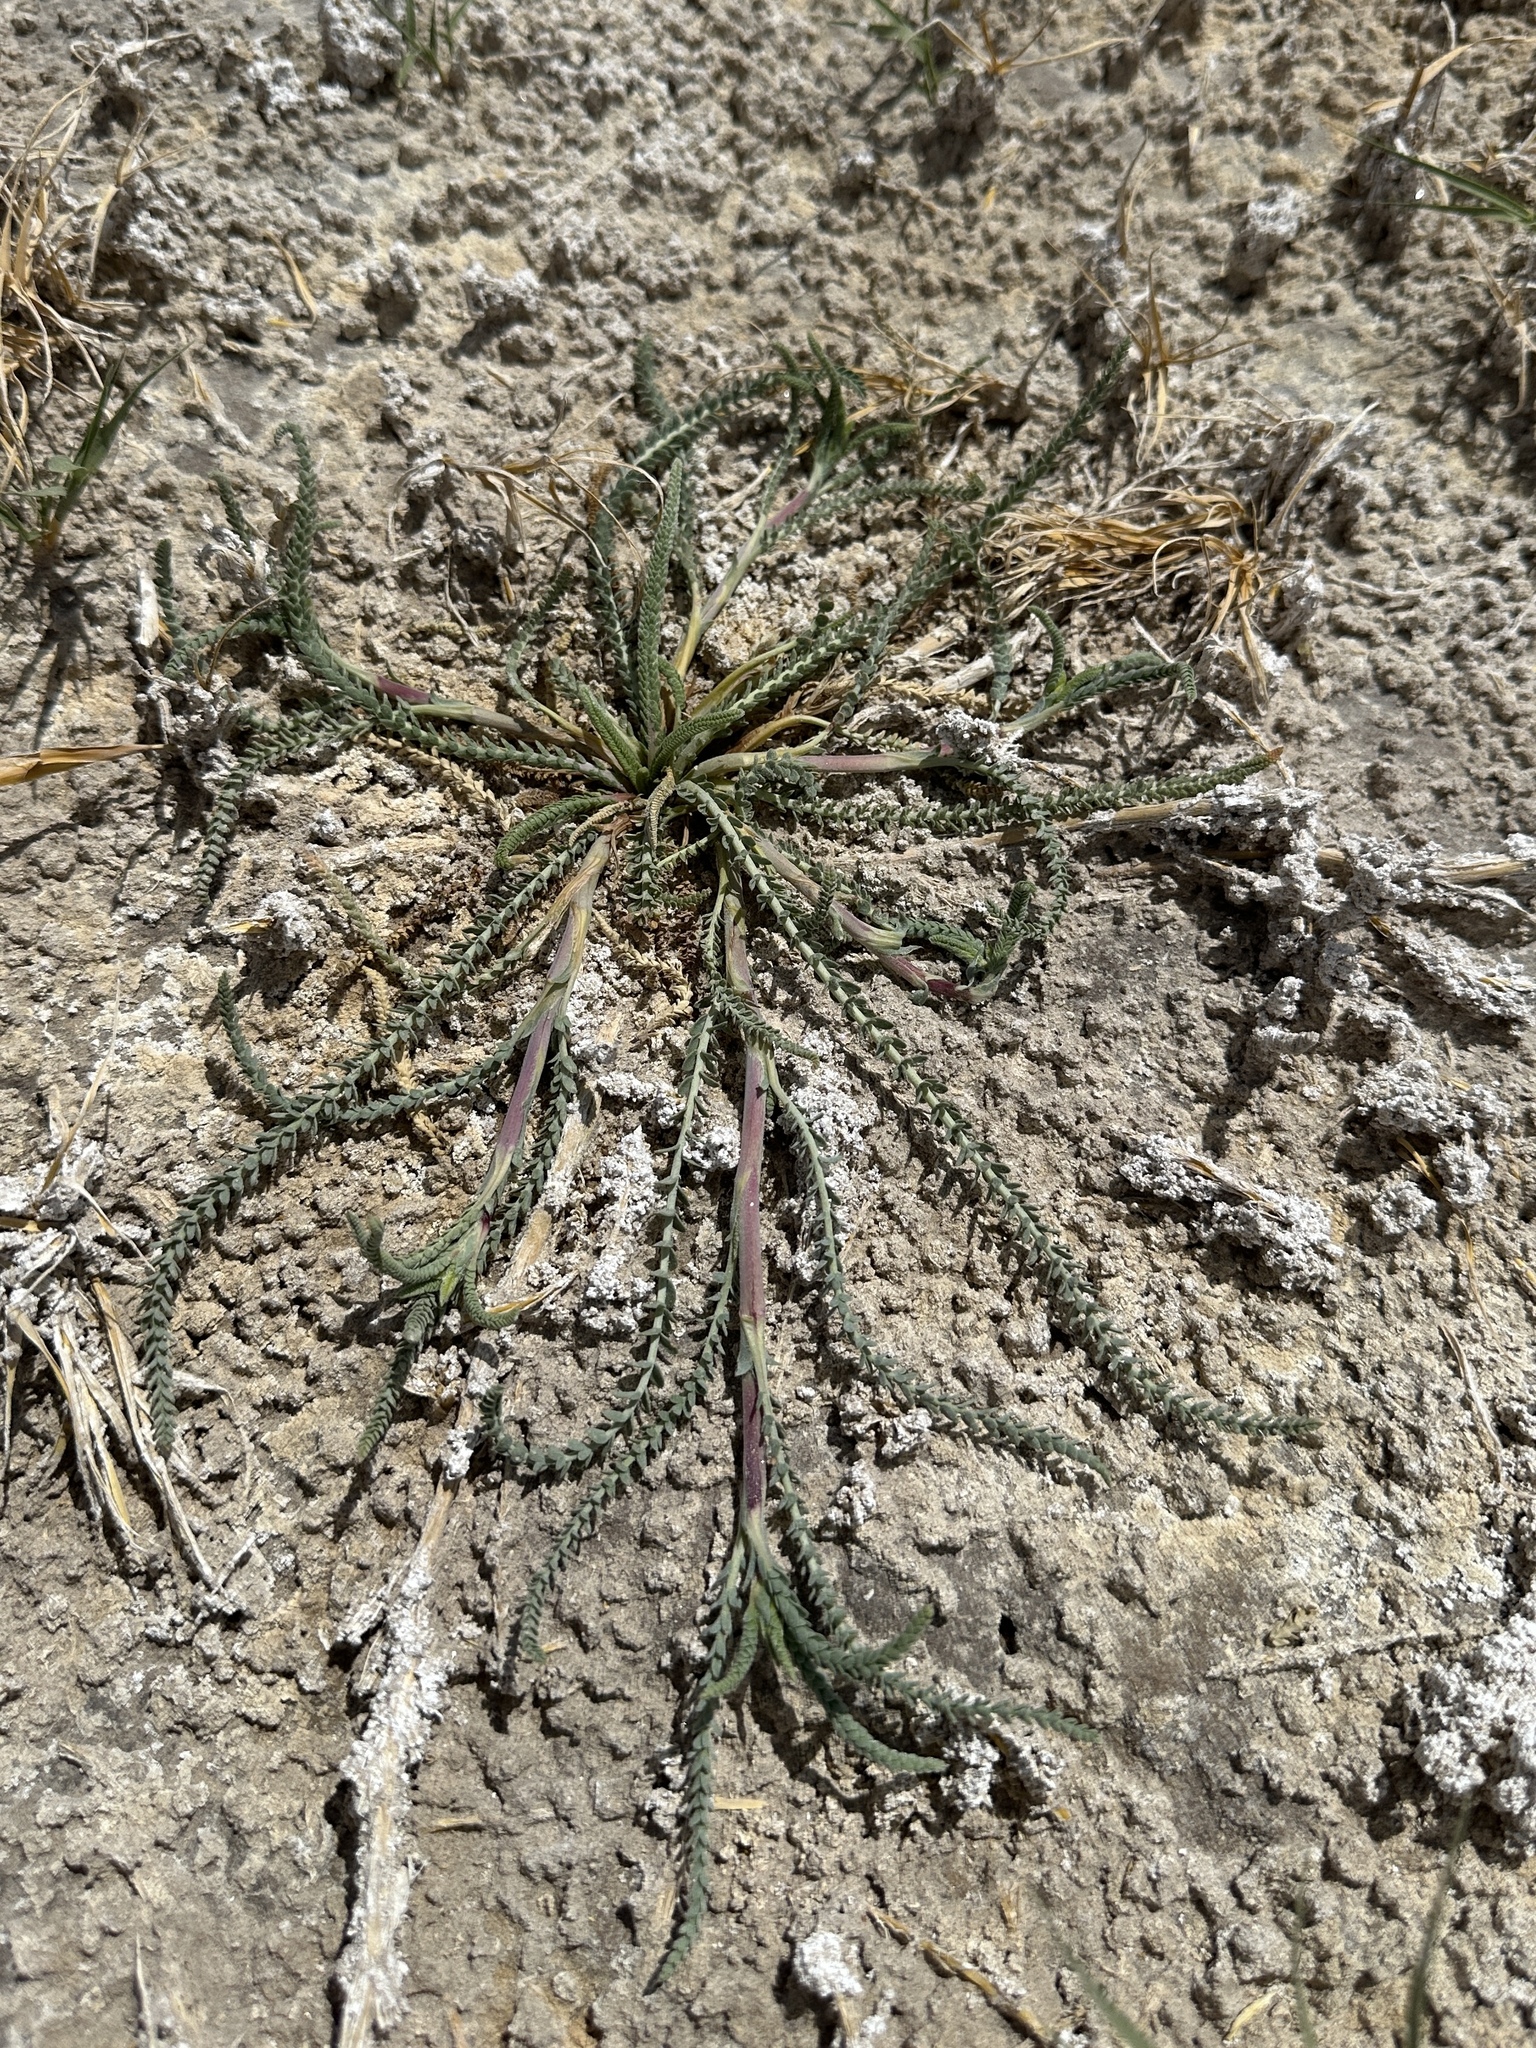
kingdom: Plantae
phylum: Tracheophyta
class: Magnoliopsida
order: Rosales
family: Rosaceae
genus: Potentilla
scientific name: Potentilla kingii
